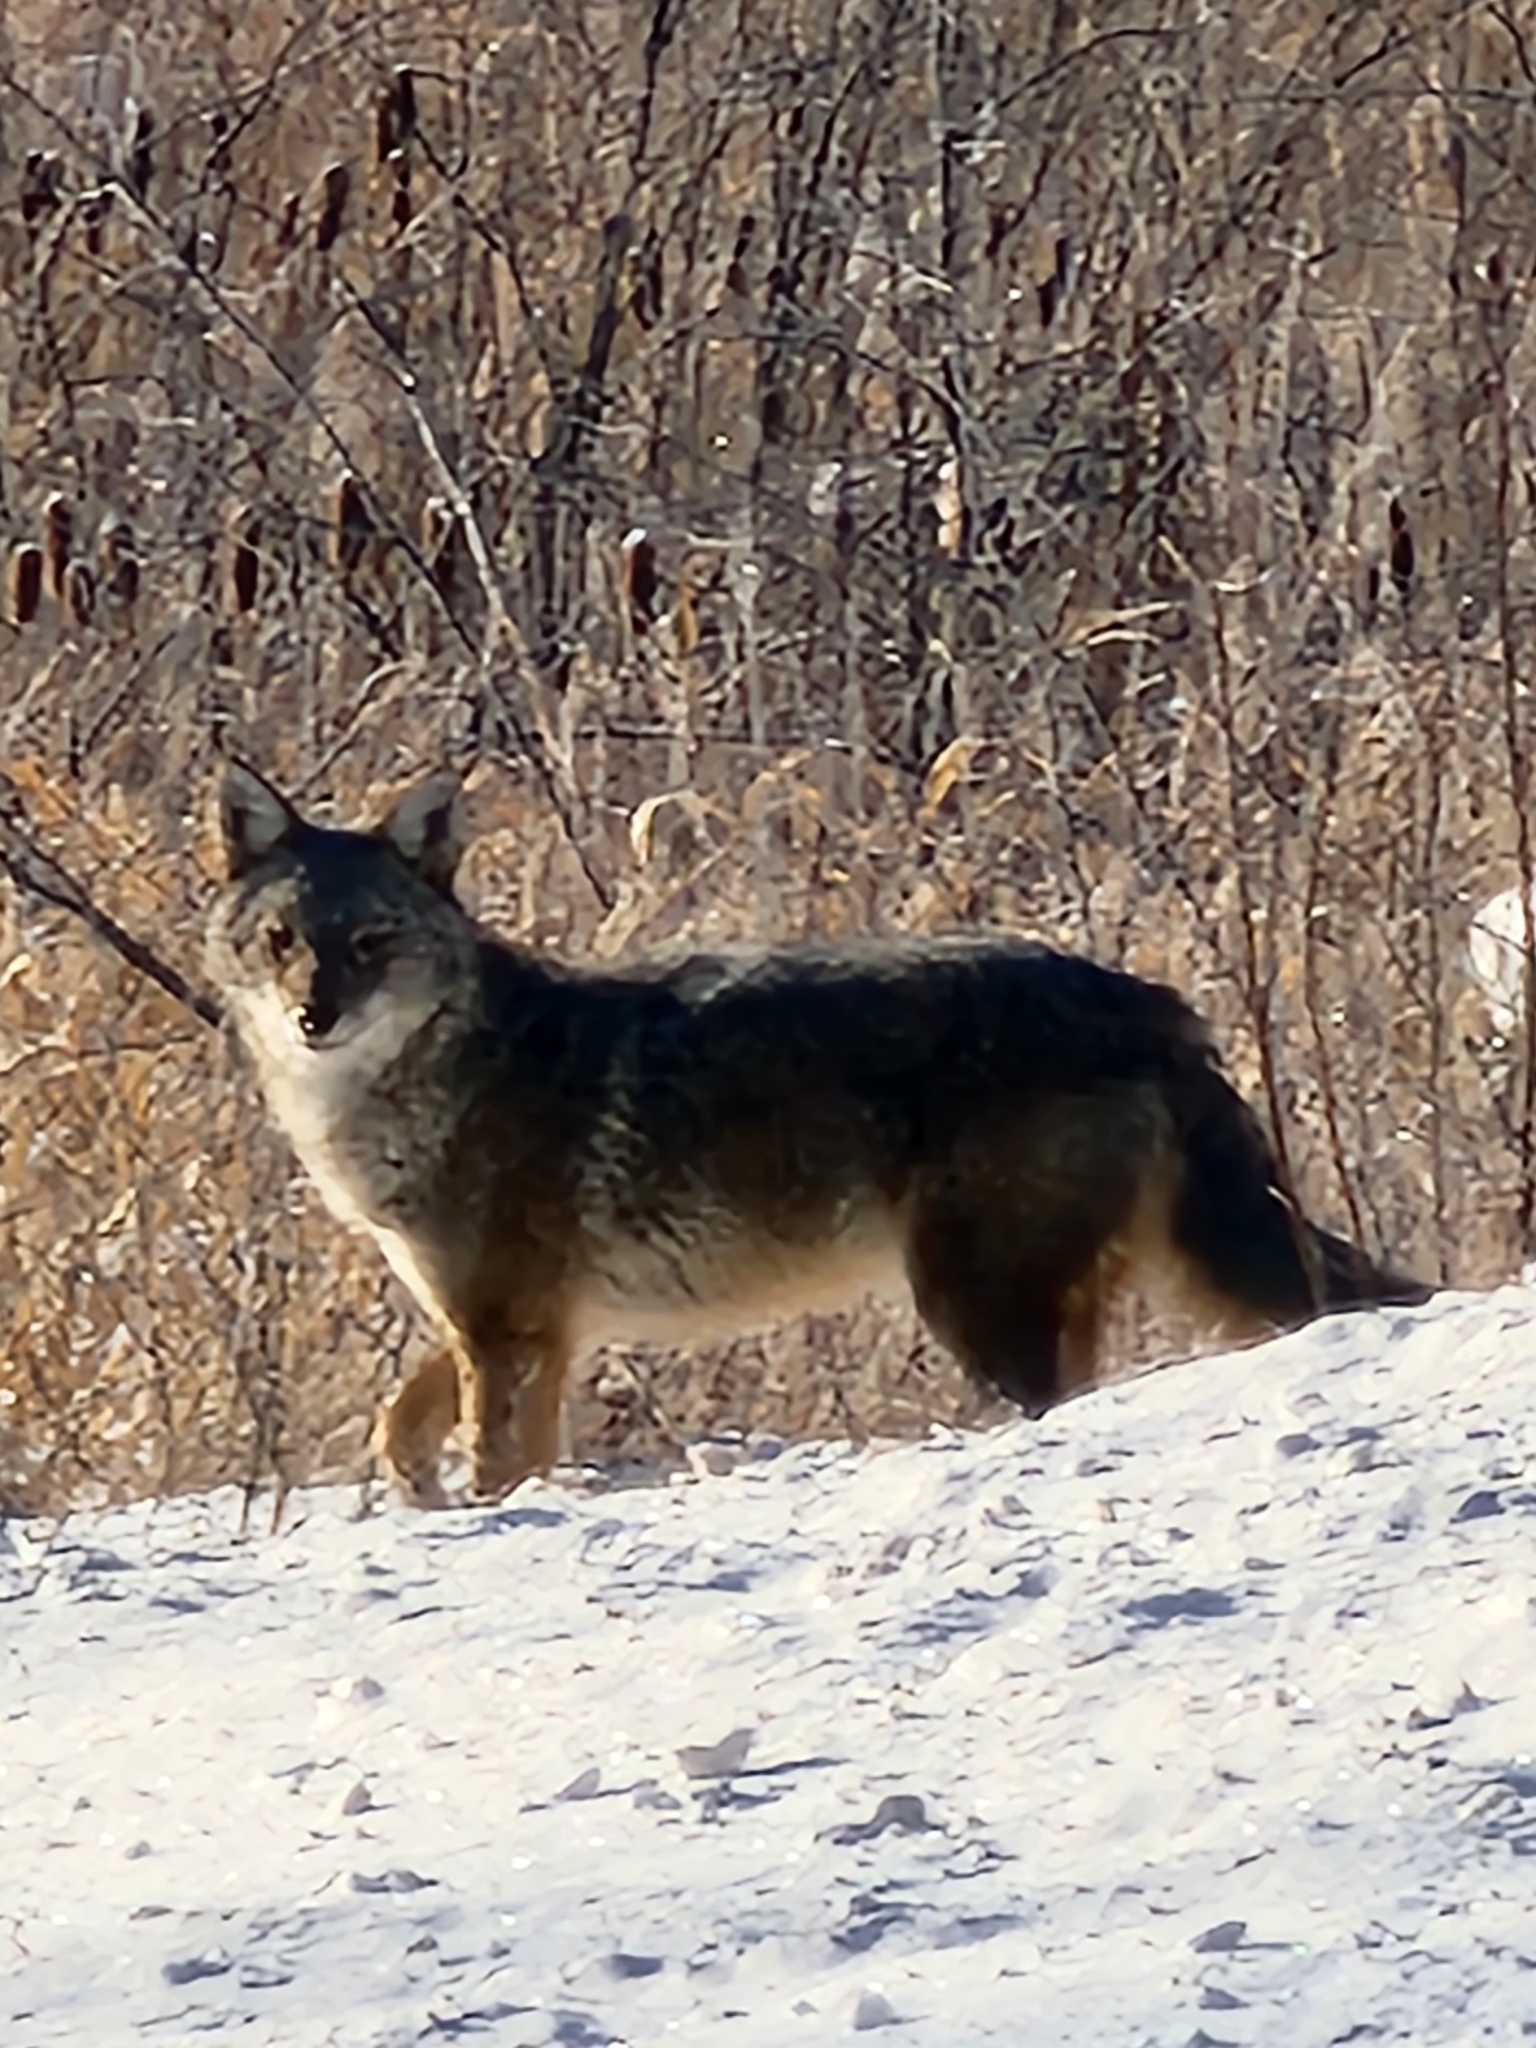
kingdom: Animalia
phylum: Chordata
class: Mammalia
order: Carnivora
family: Canidae
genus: Canis
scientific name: Canis latrans
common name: Coyote
